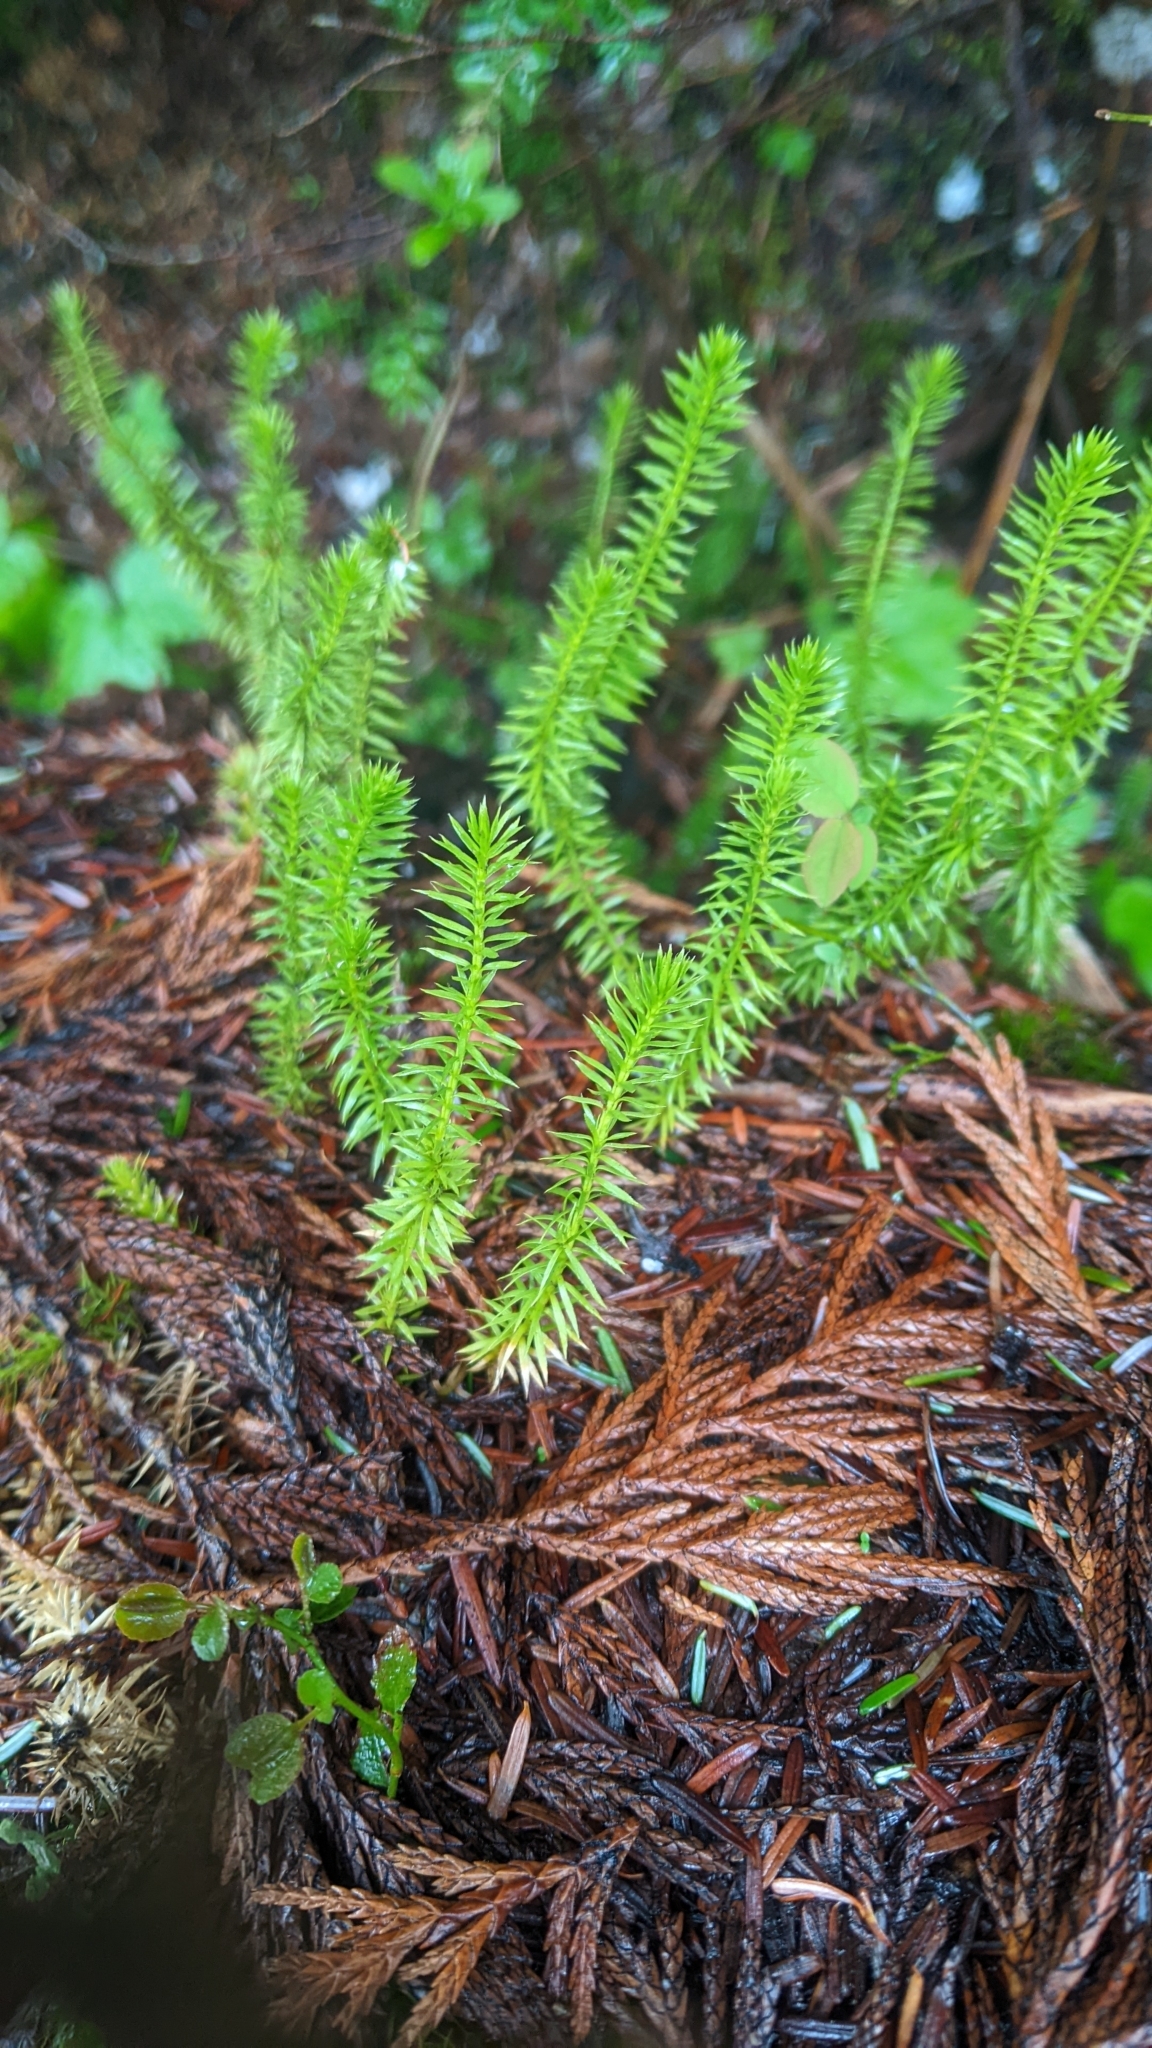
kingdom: Plantae
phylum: Tracheophyta
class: Lycopodiopsida
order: Lycopodiales
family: Lycopodiaceae
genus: Spinulum
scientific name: Spinulum annotinum
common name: Interrupted club-moss
